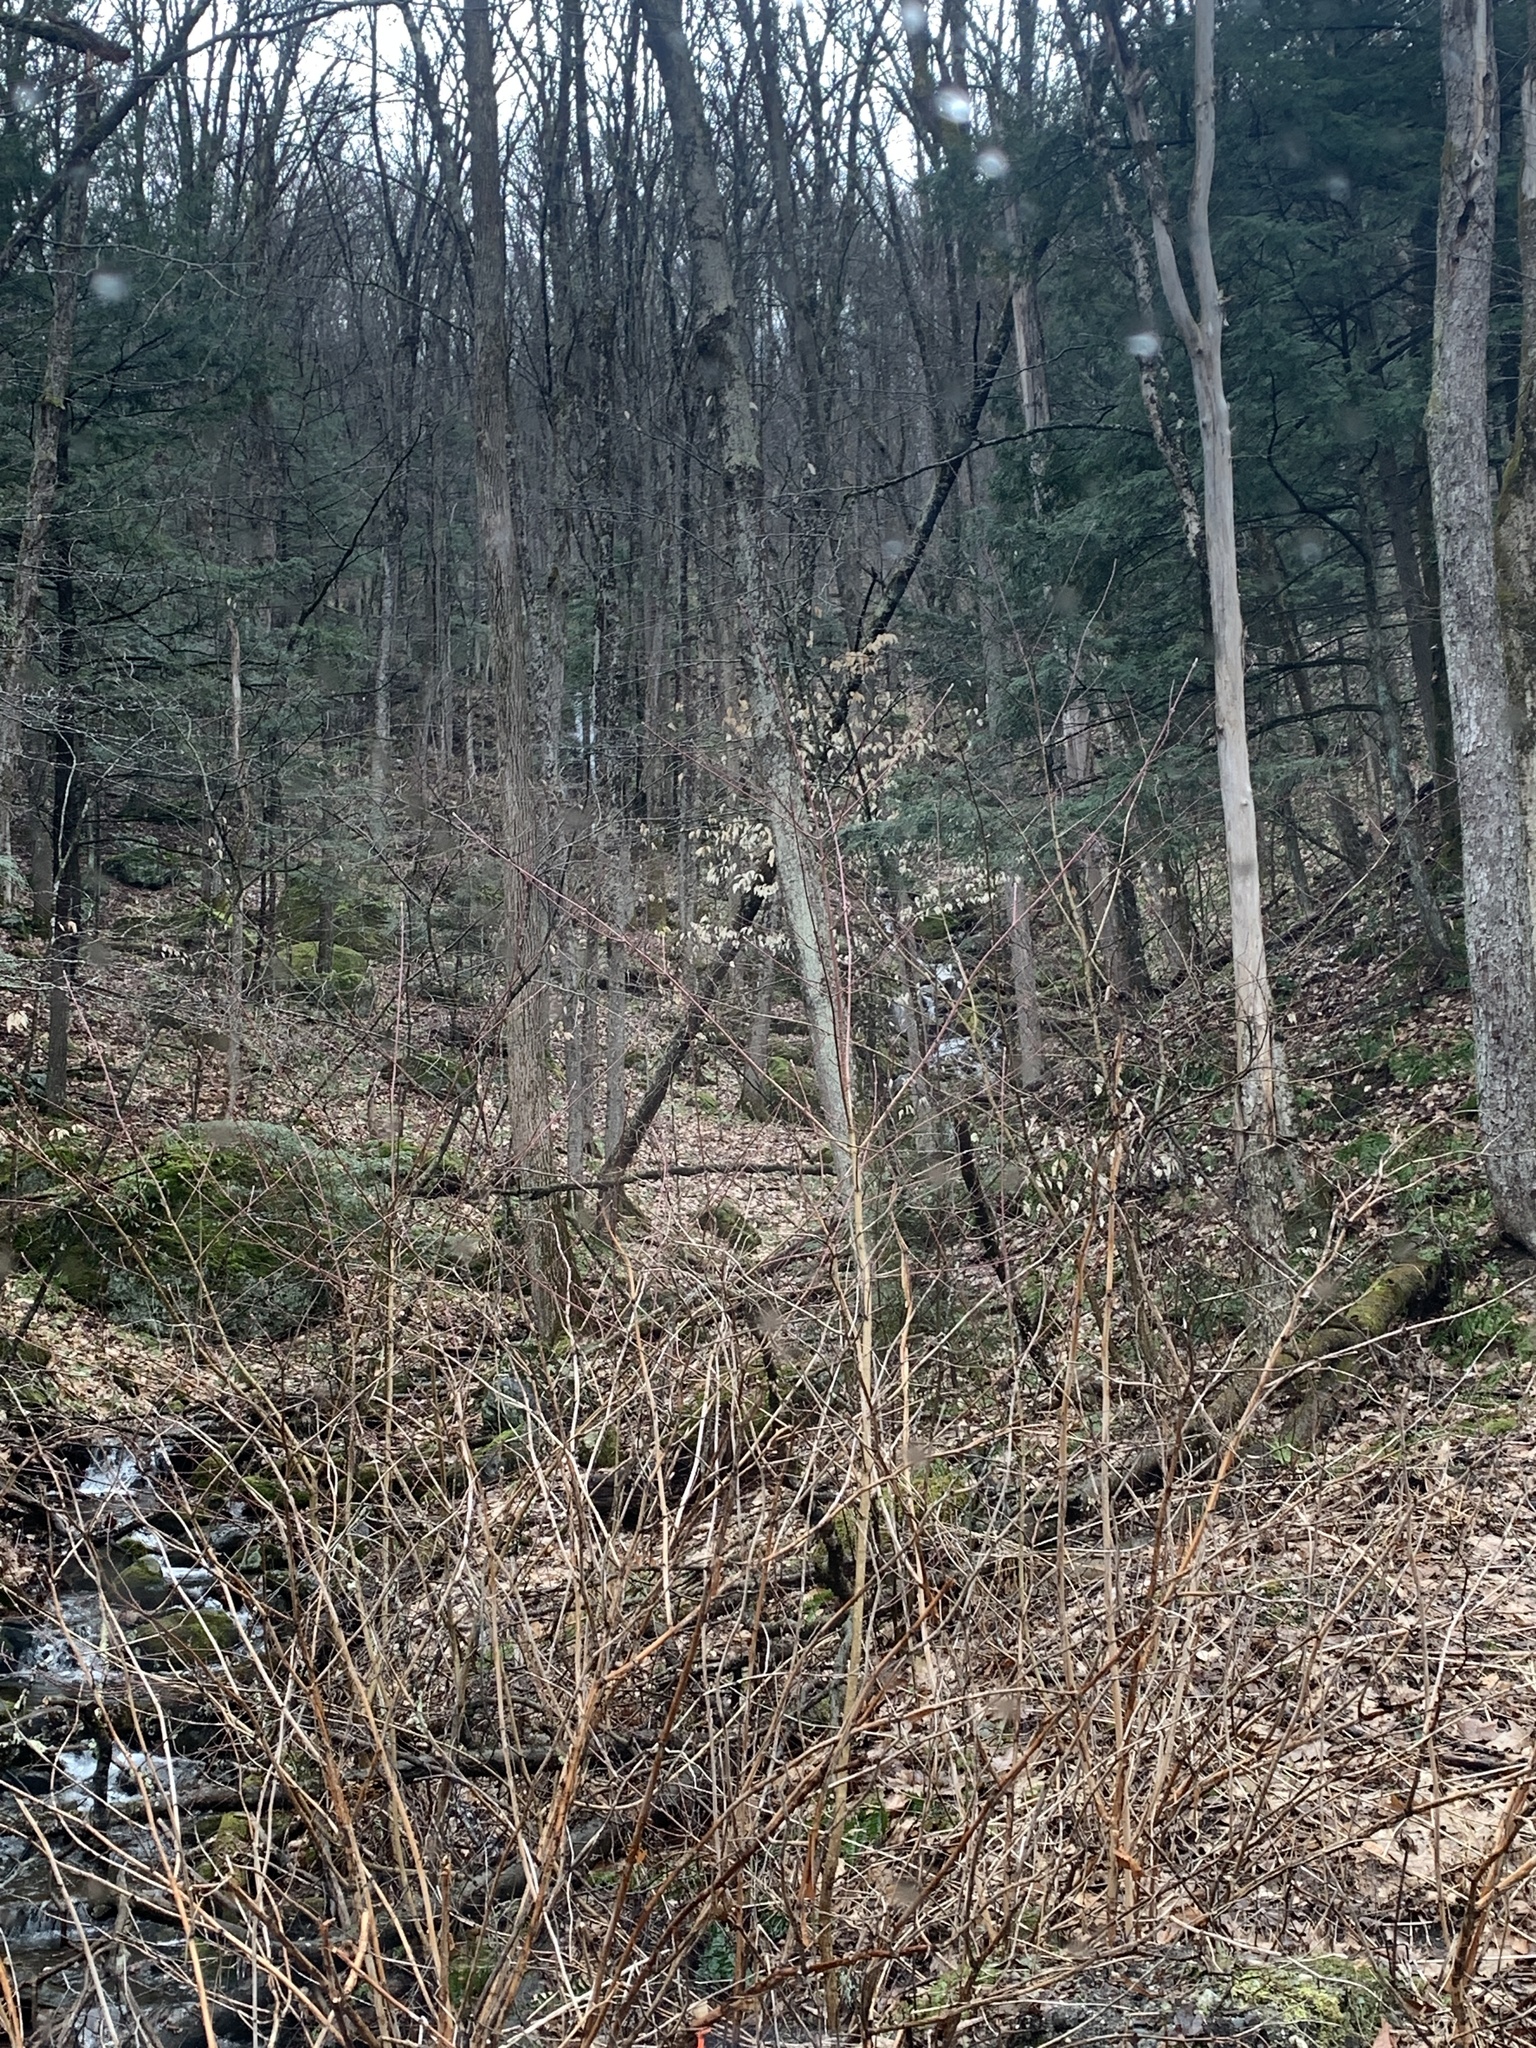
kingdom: Plantae
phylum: Tracheophyta
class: Magnoliopsida
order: Fagales
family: Fagaceae
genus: Fagus
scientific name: Fagus grandifolia
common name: American beech
